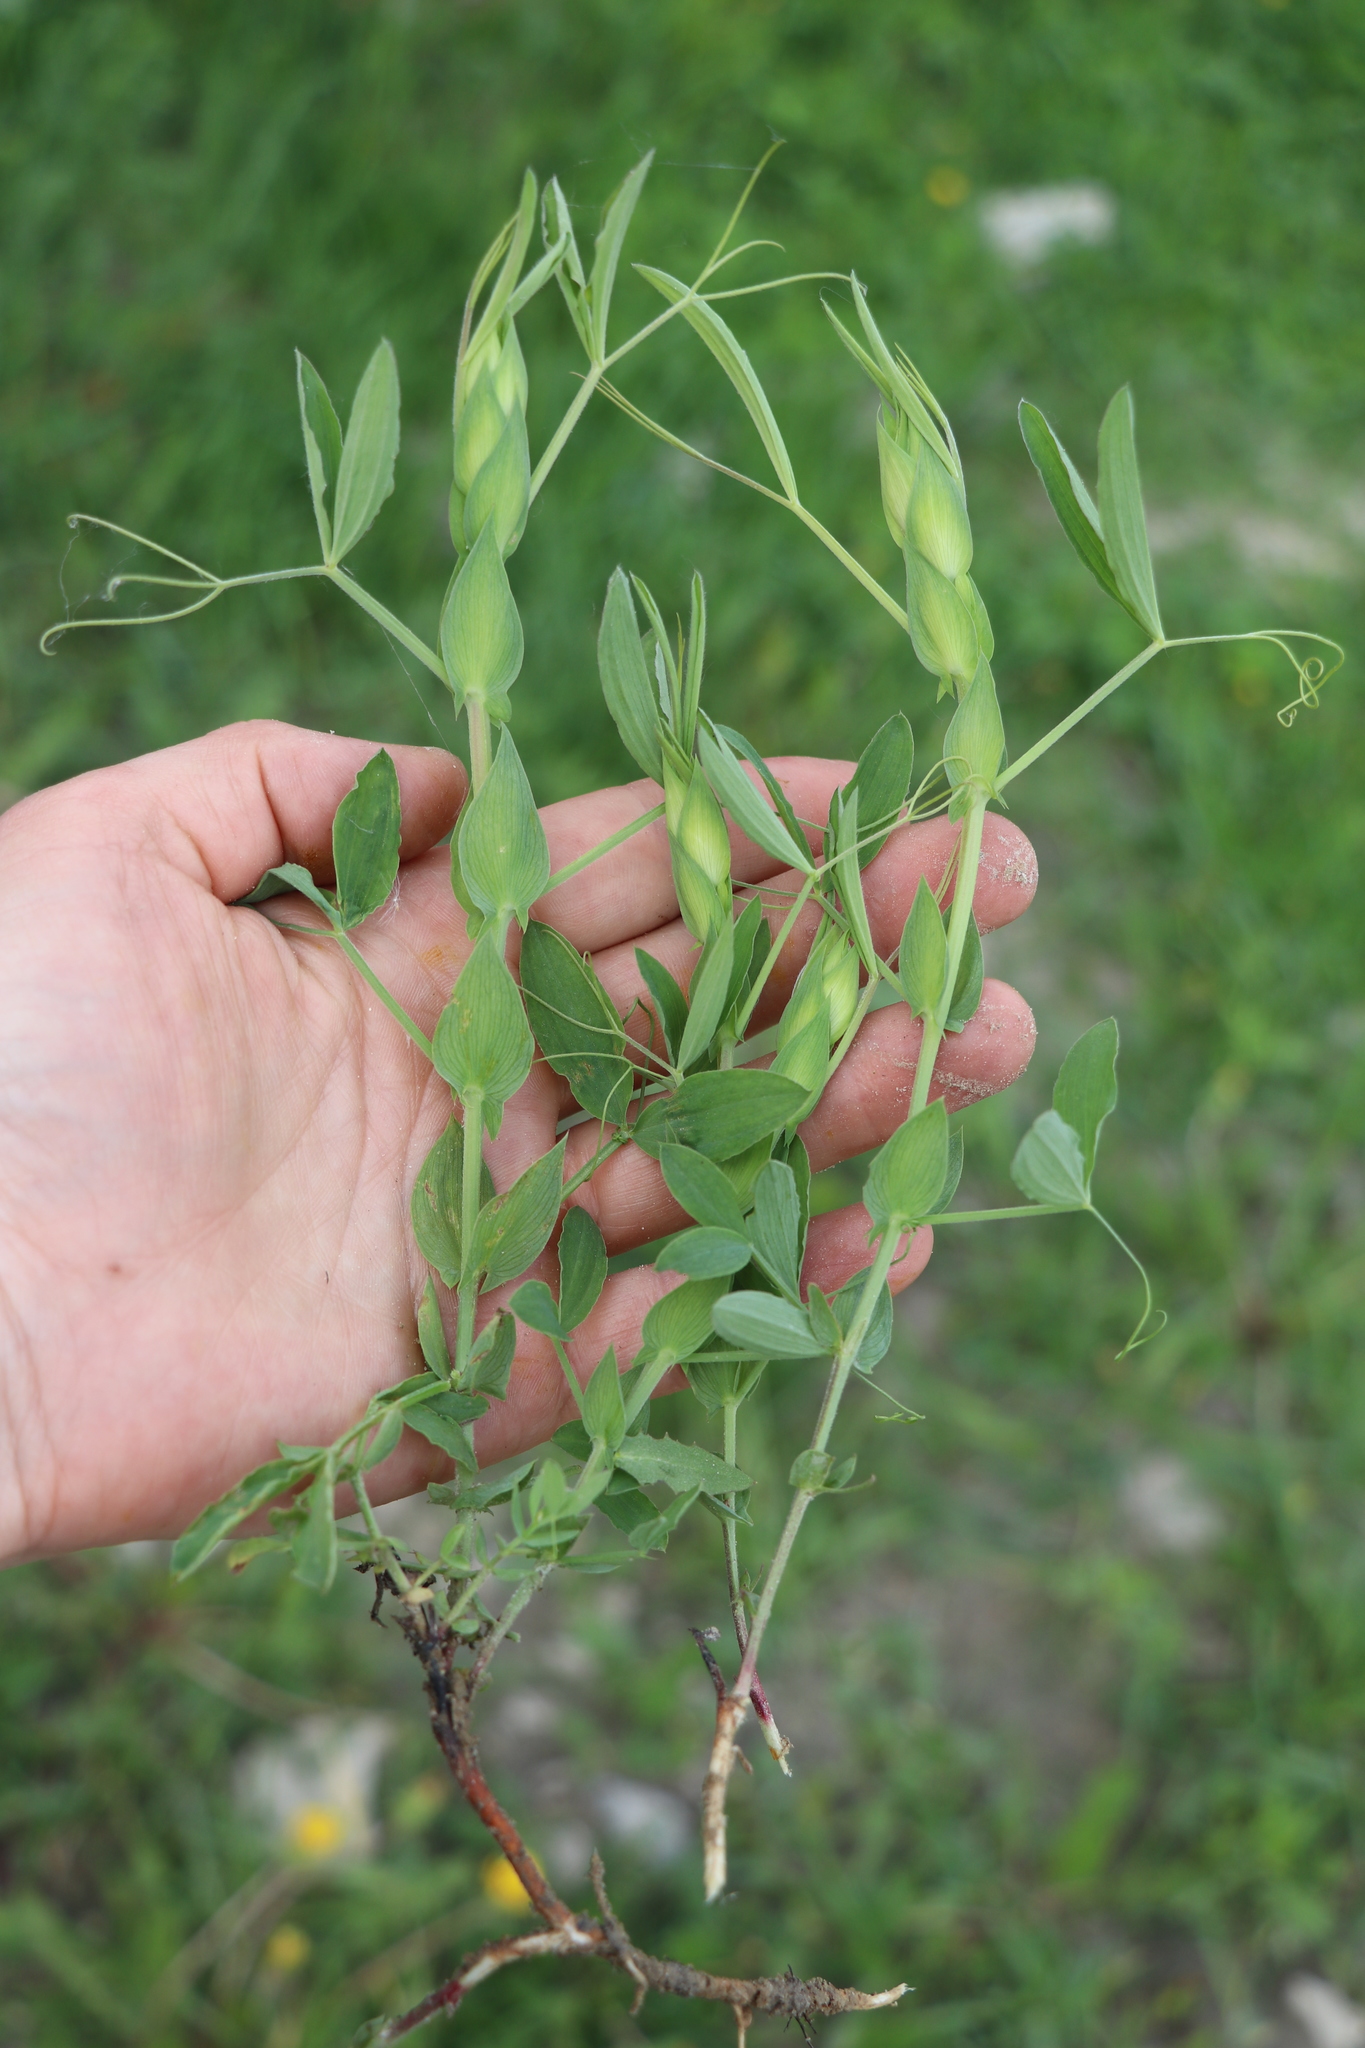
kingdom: Plantae
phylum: Tracheophyta
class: Magnoliopsida
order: Fabales
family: Fabaceae
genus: Lathyrus
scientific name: Lathyrus pratensis
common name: Meadow vetchling
